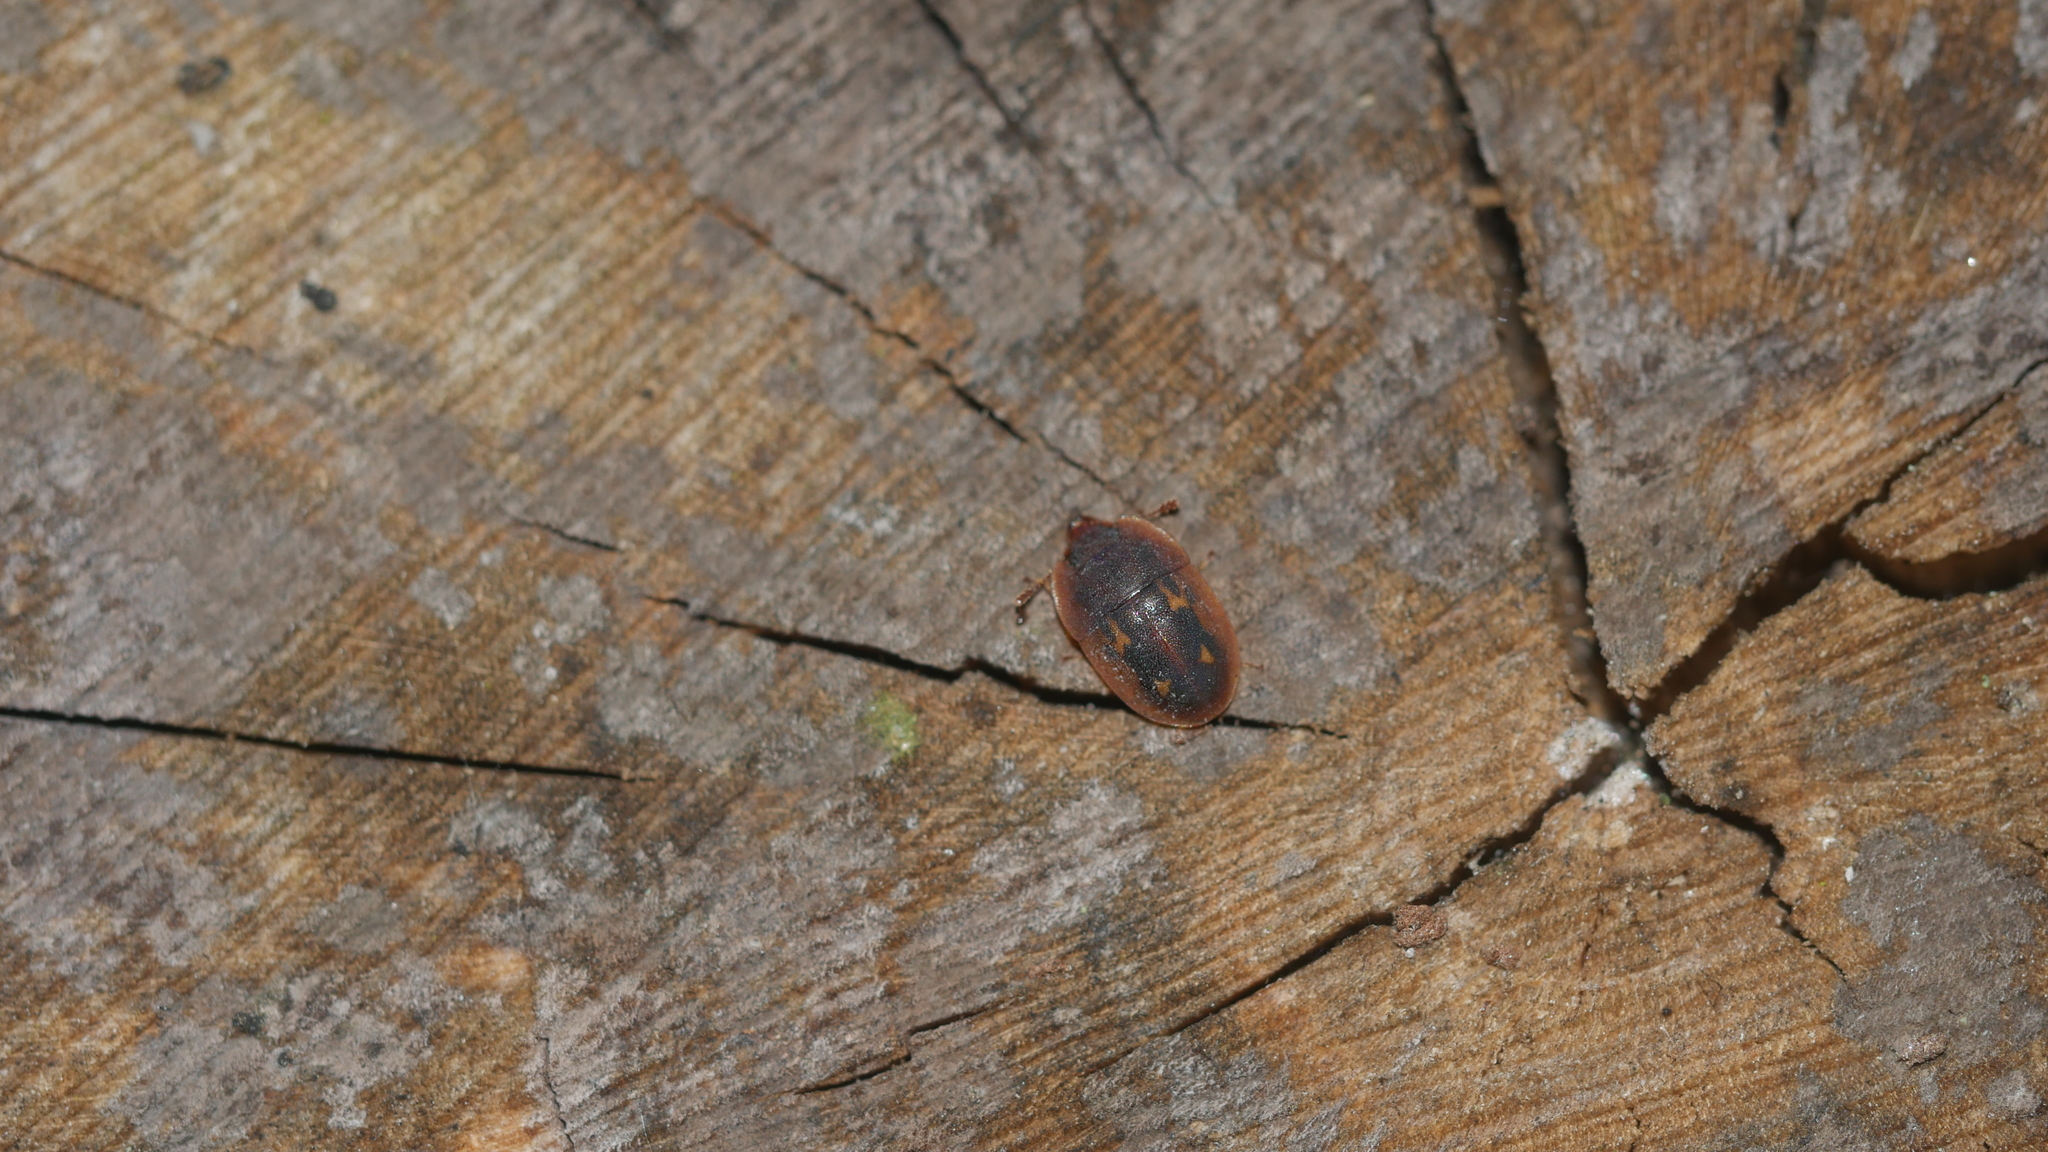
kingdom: Animalia
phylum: Arthropoda
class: Insecta
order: Coleoptera
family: Nitidulidae
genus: Prometopia
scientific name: Prometopia sexmaculata
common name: Six-spotted sap-feeding beetle
